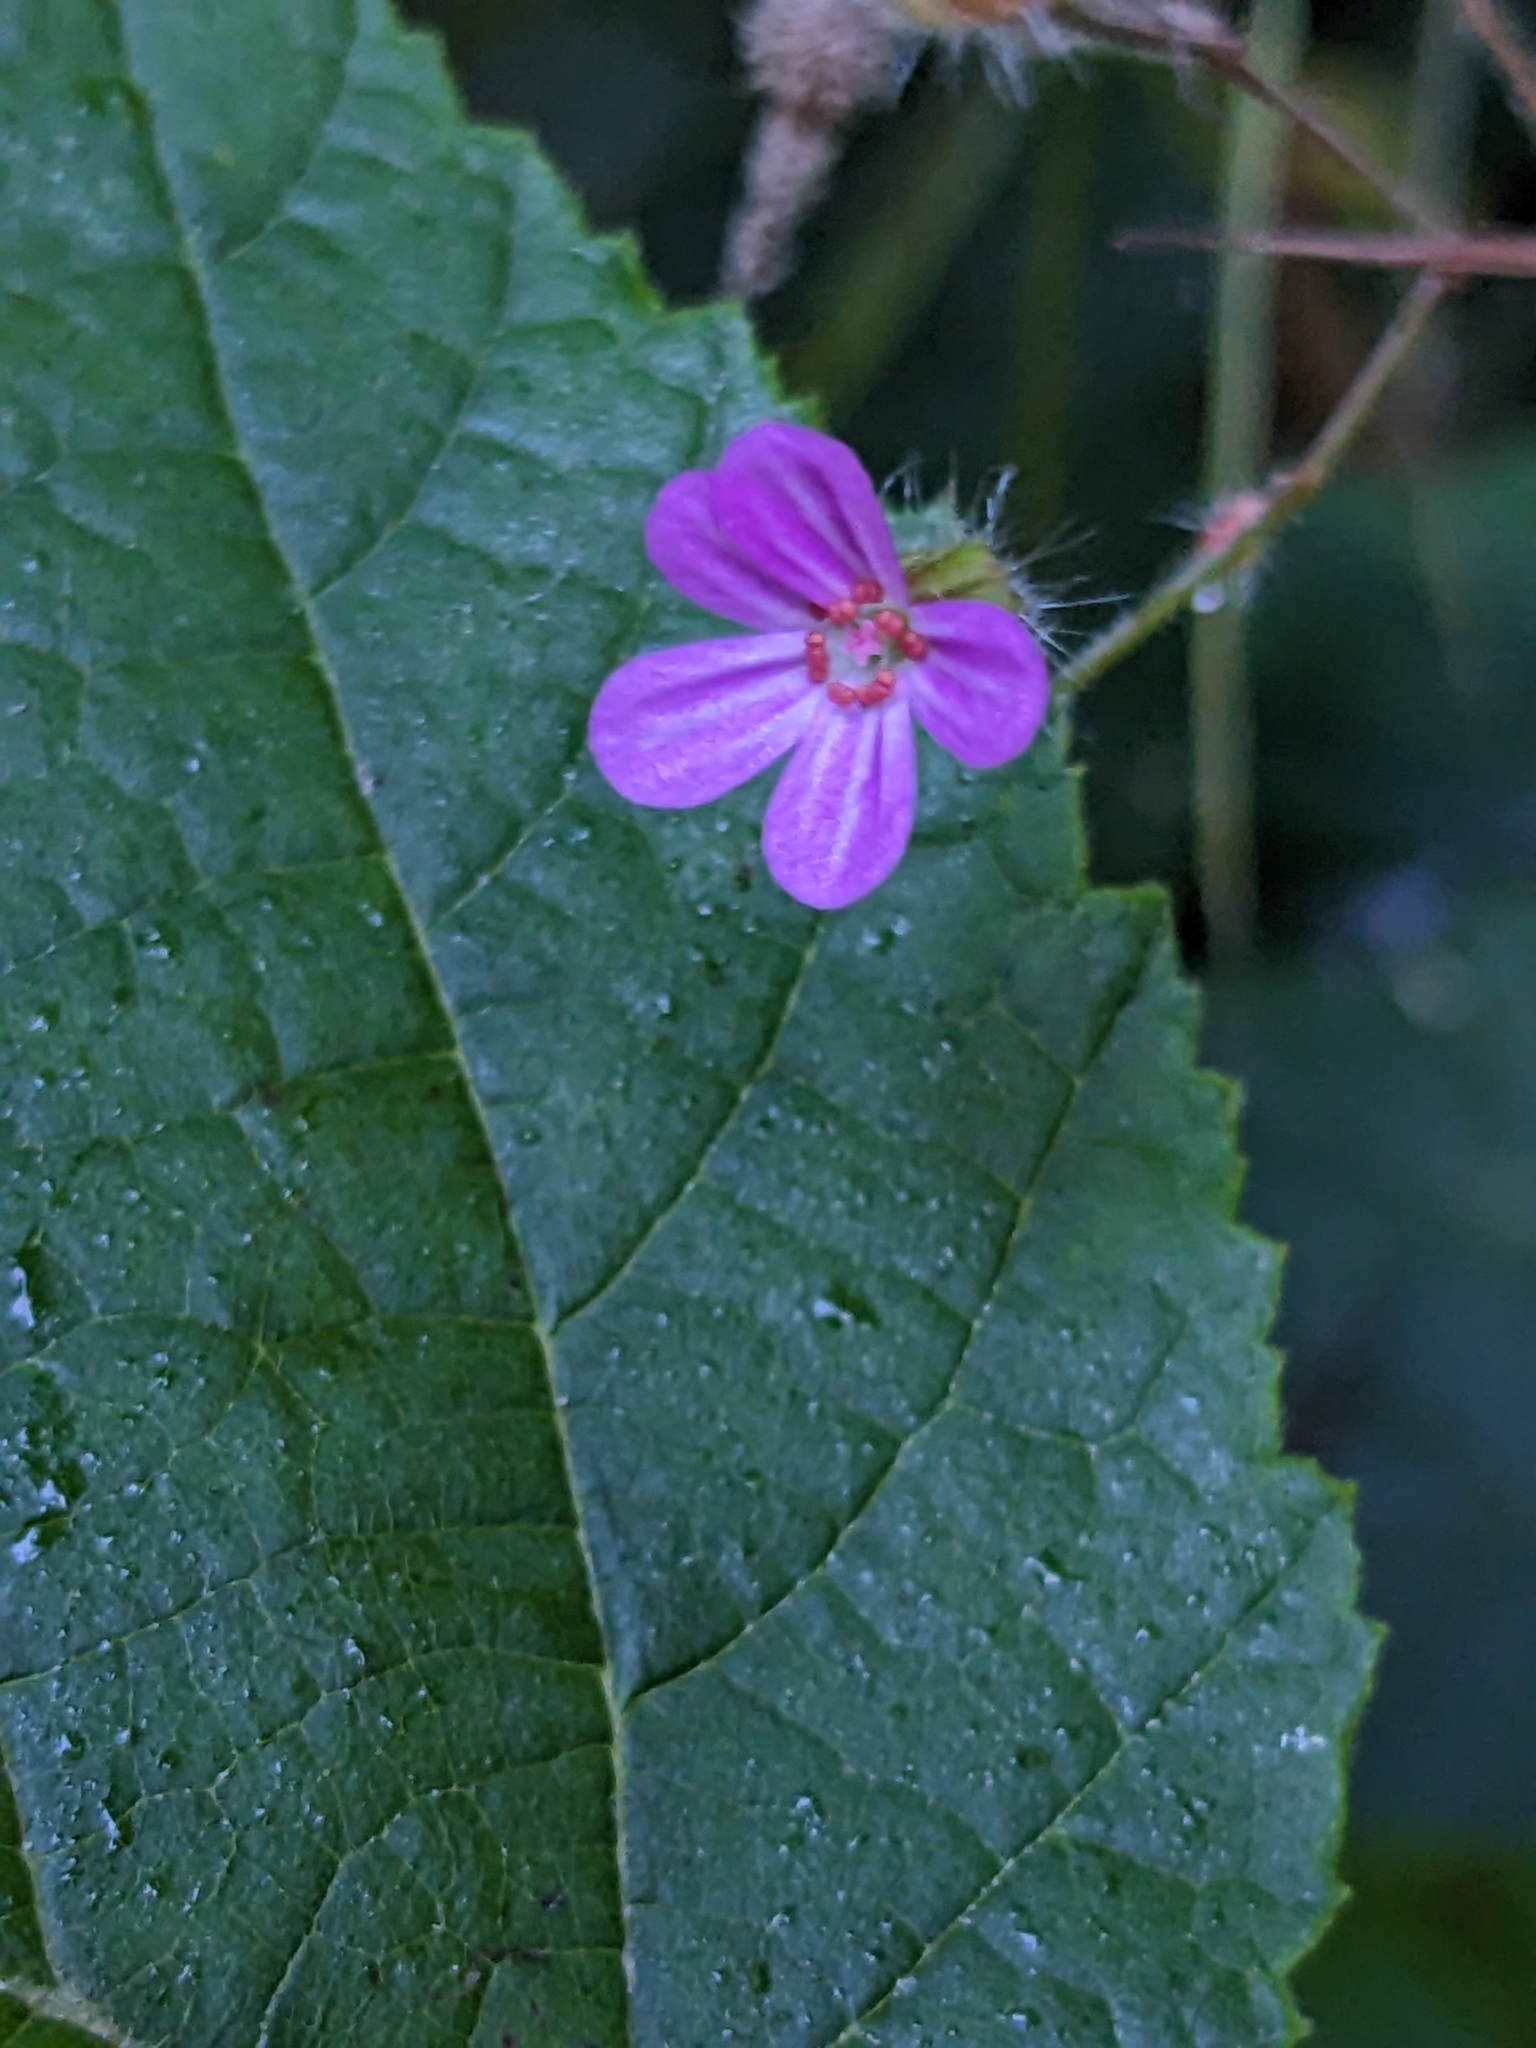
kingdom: Plantae
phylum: Tracheophyta
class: Magnoliopsida
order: Geraniales
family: Geraniaceae
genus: Geranium
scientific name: Geranium robertianum
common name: Herb-robert
